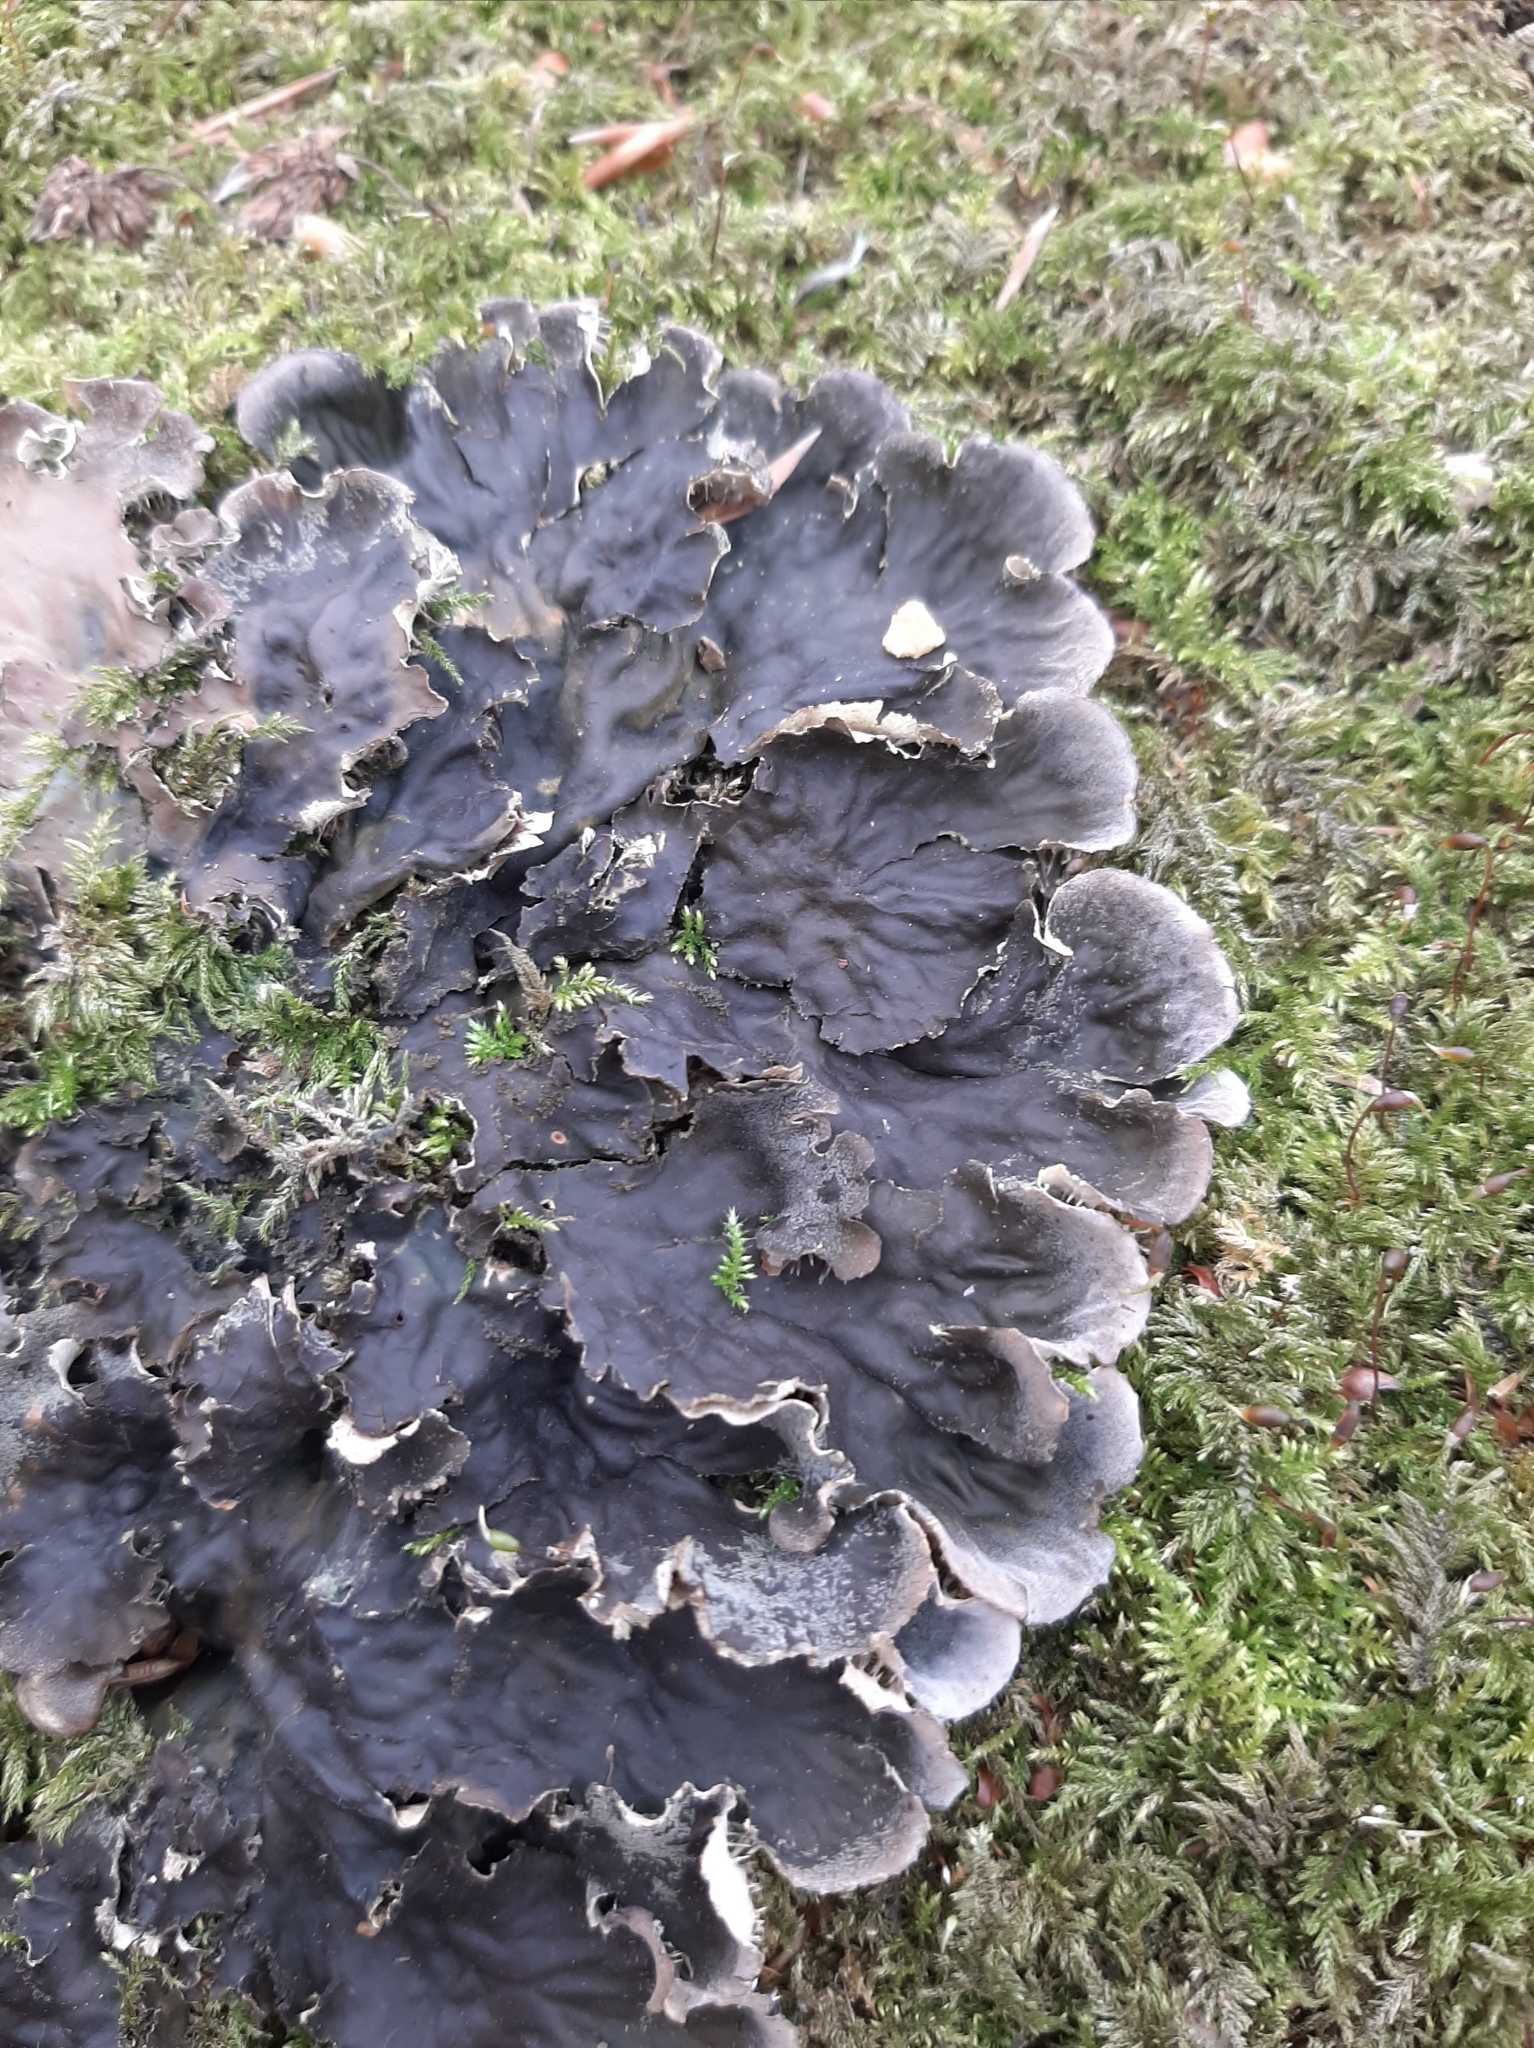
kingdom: Fungi
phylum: Ascomycota
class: Lecanoromycetes
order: Peltigerales
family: Peltigeraceae
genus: Peltigera
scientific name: Peltigera praetextata
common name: Scaly dog-lichen
